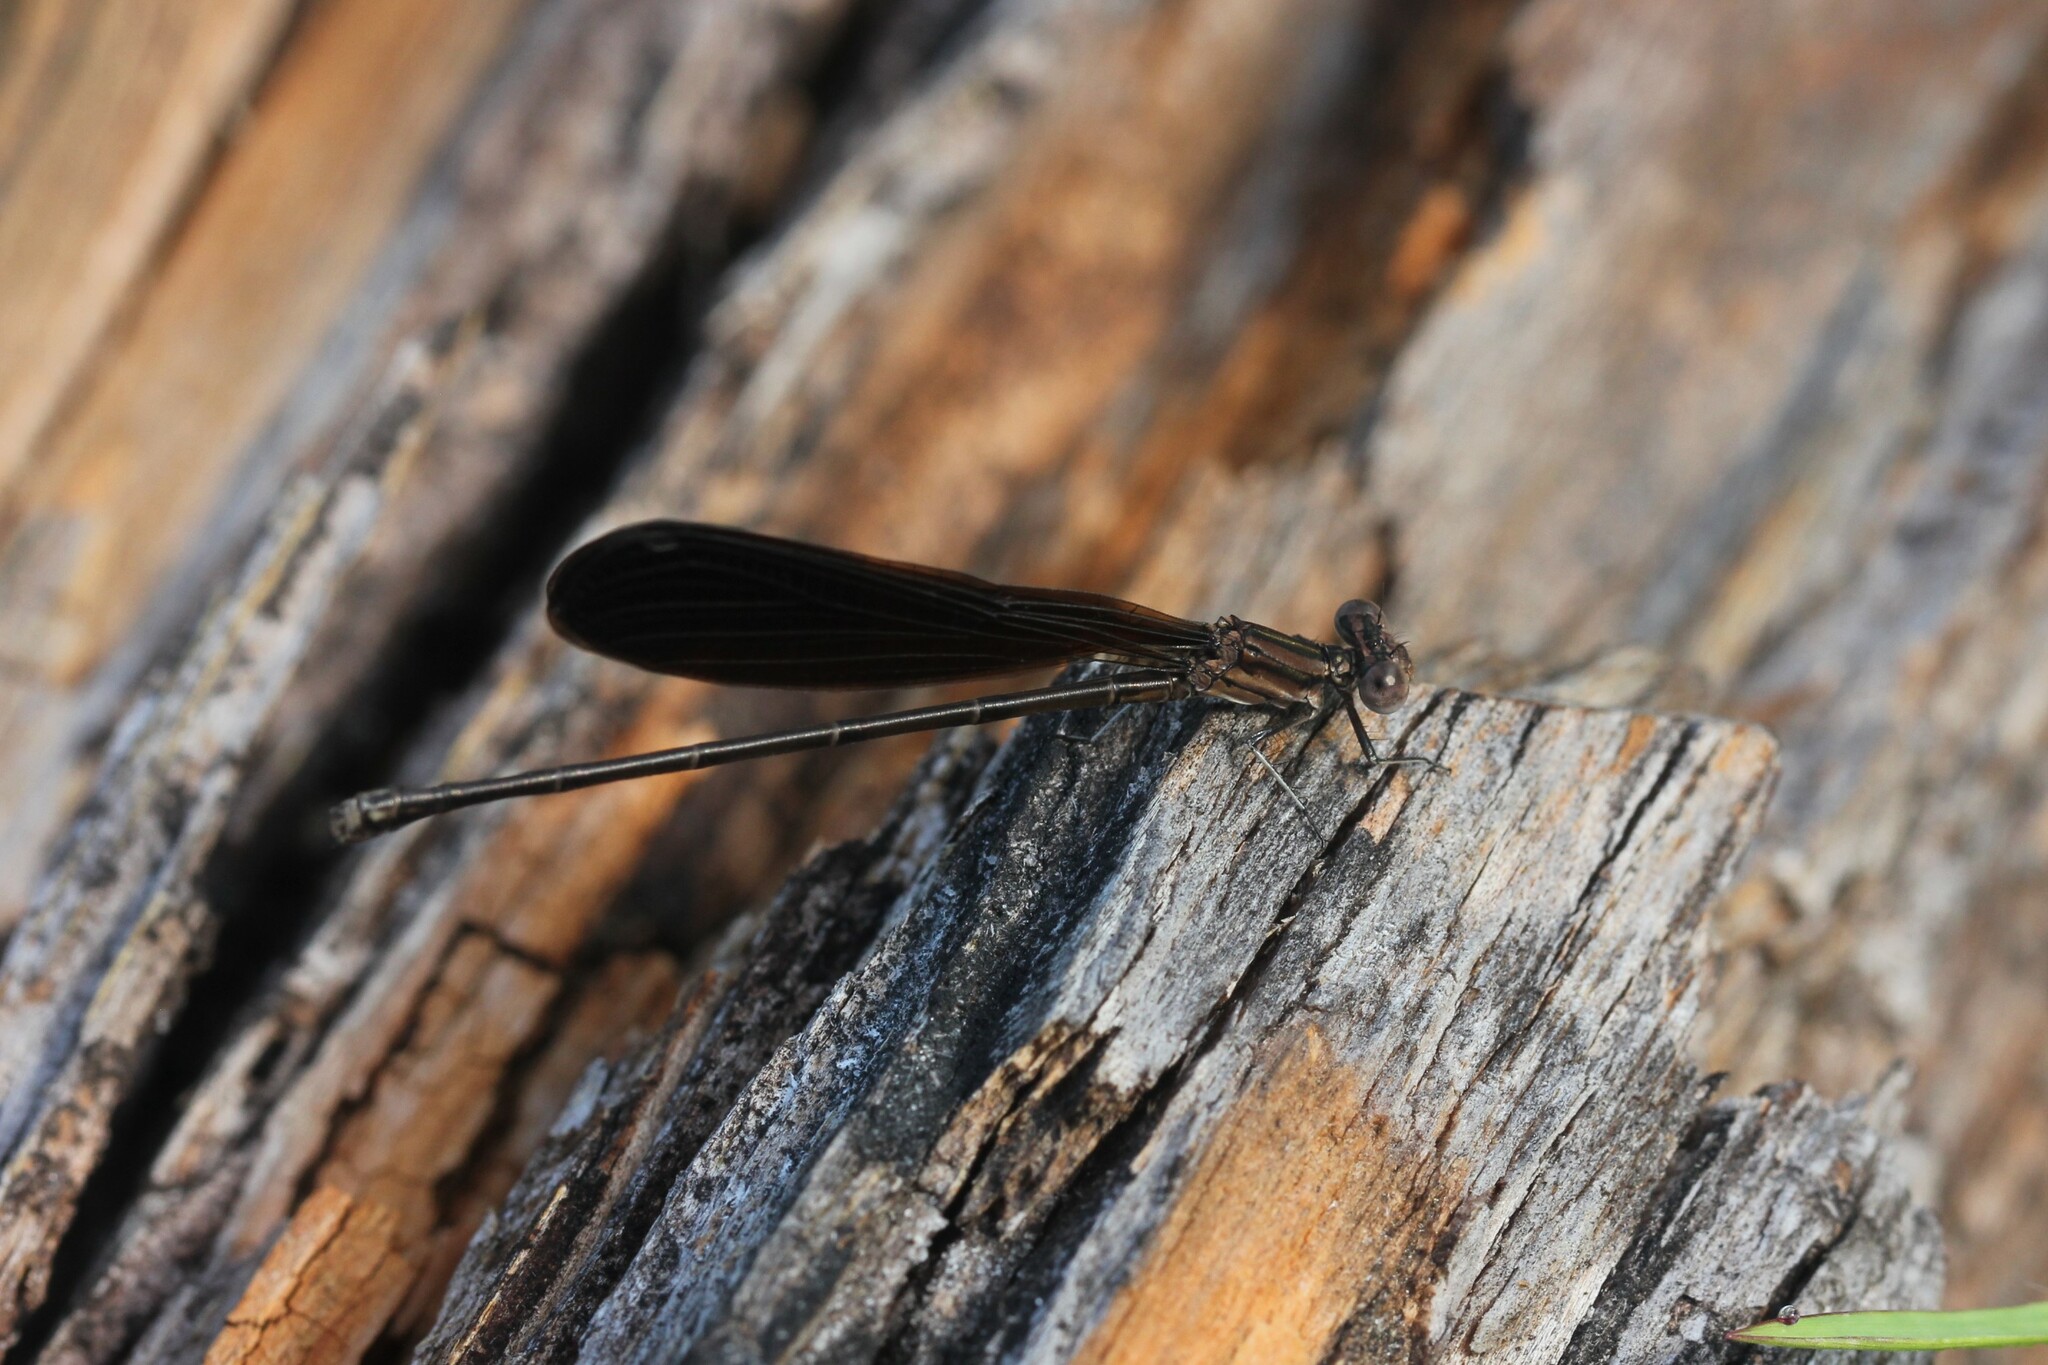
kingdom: Animalia
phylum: Arthropoda
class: Insecta
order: Odonata
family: Coenagrionidae
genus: Argia
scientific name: Argia fumipennis
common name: Variable dancer
